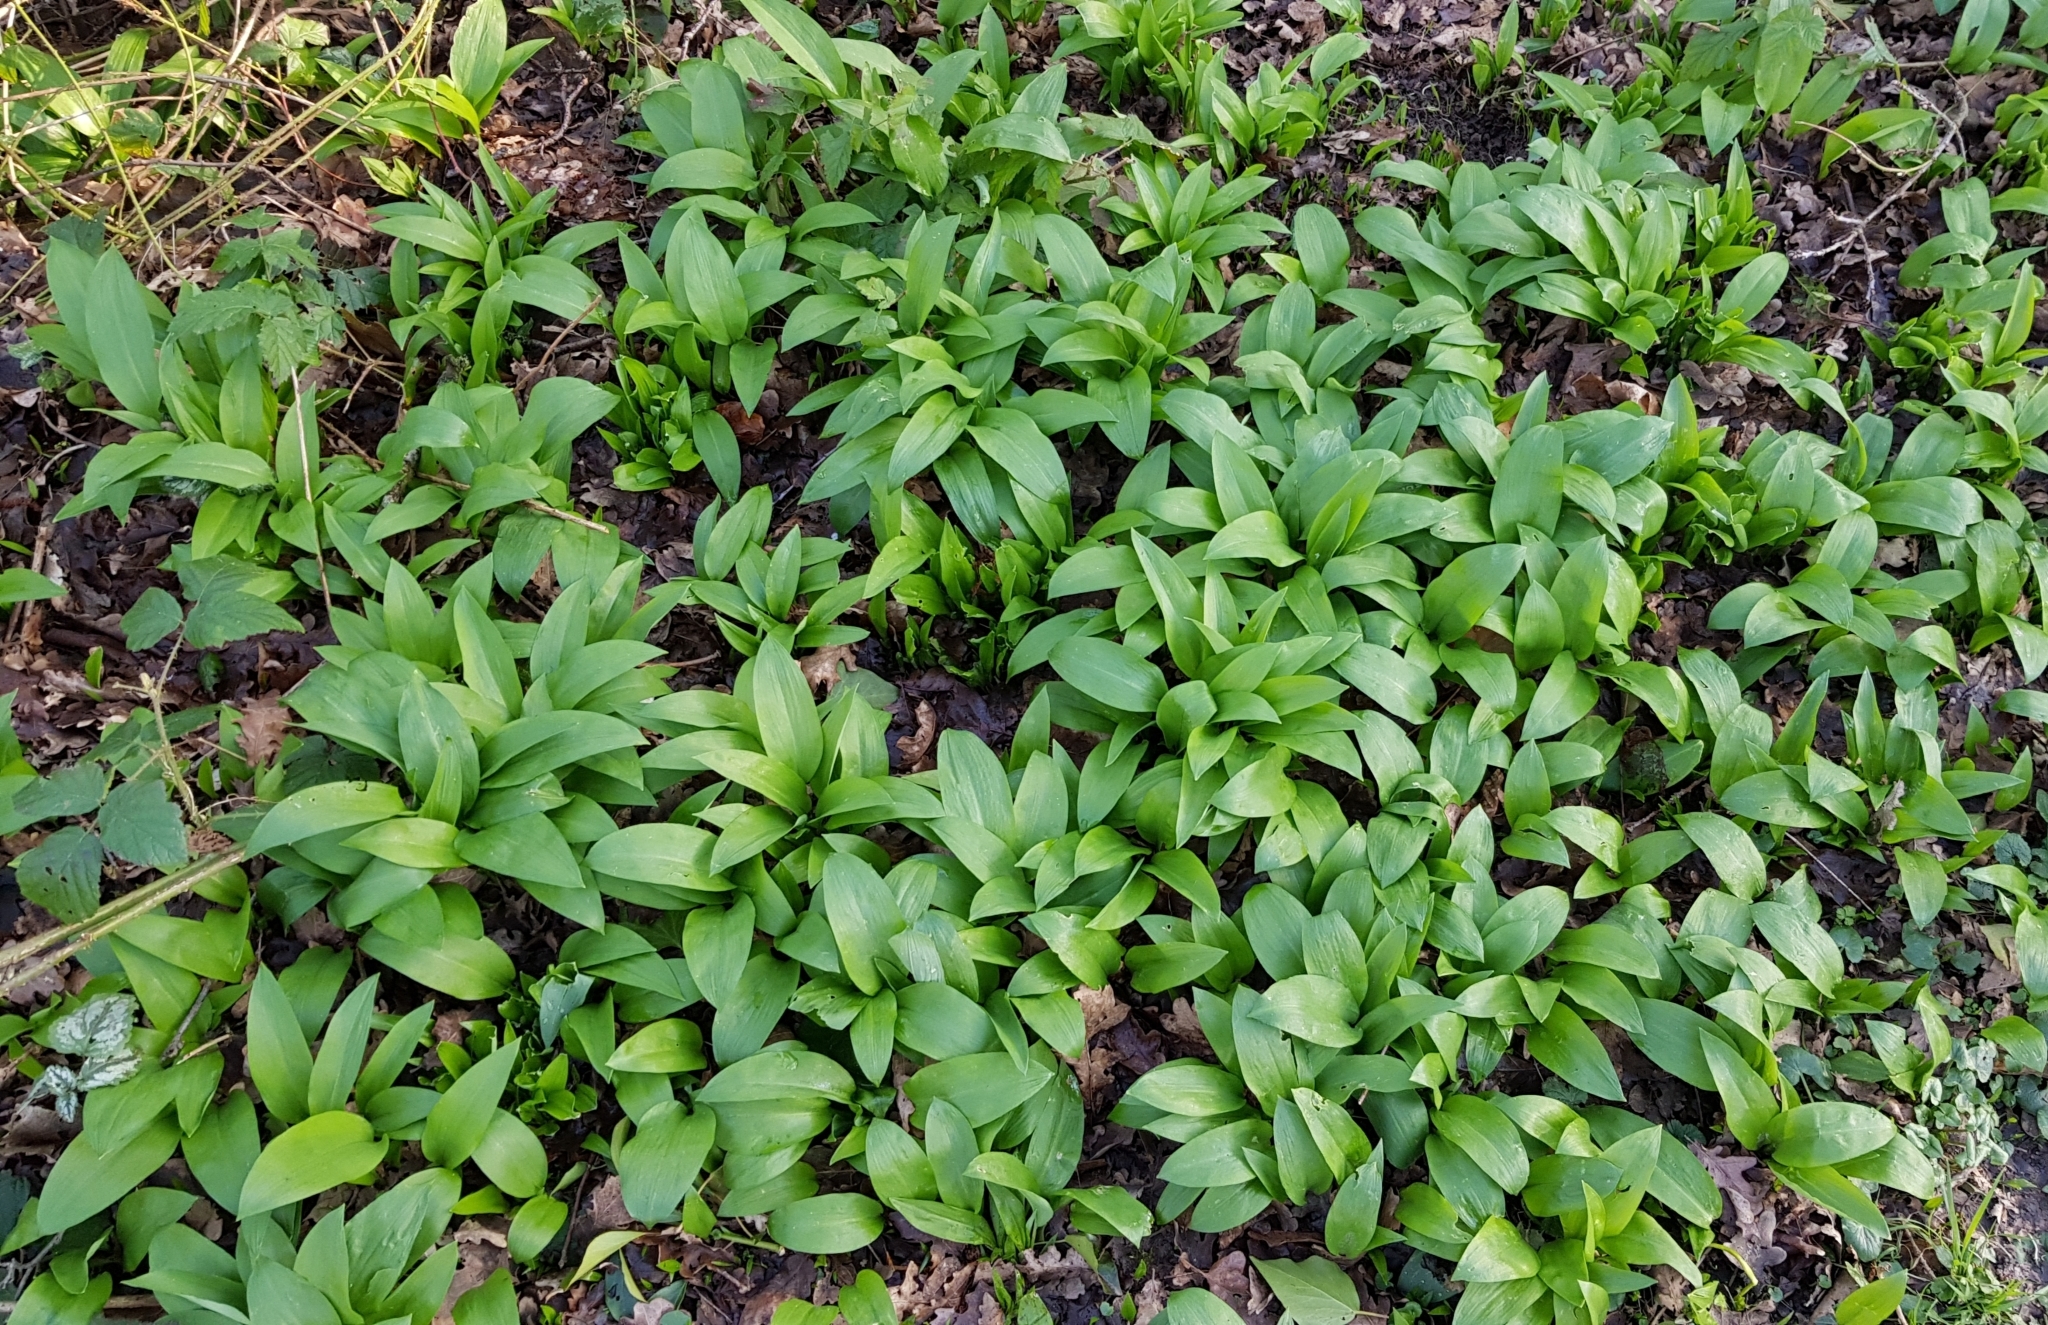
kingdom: Plantae
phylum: Tracheophyta
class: Liliopsida
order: Asparagales
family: Amaryllidaceae
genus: Allium
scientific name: Allium ursinum
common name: Ramsons
